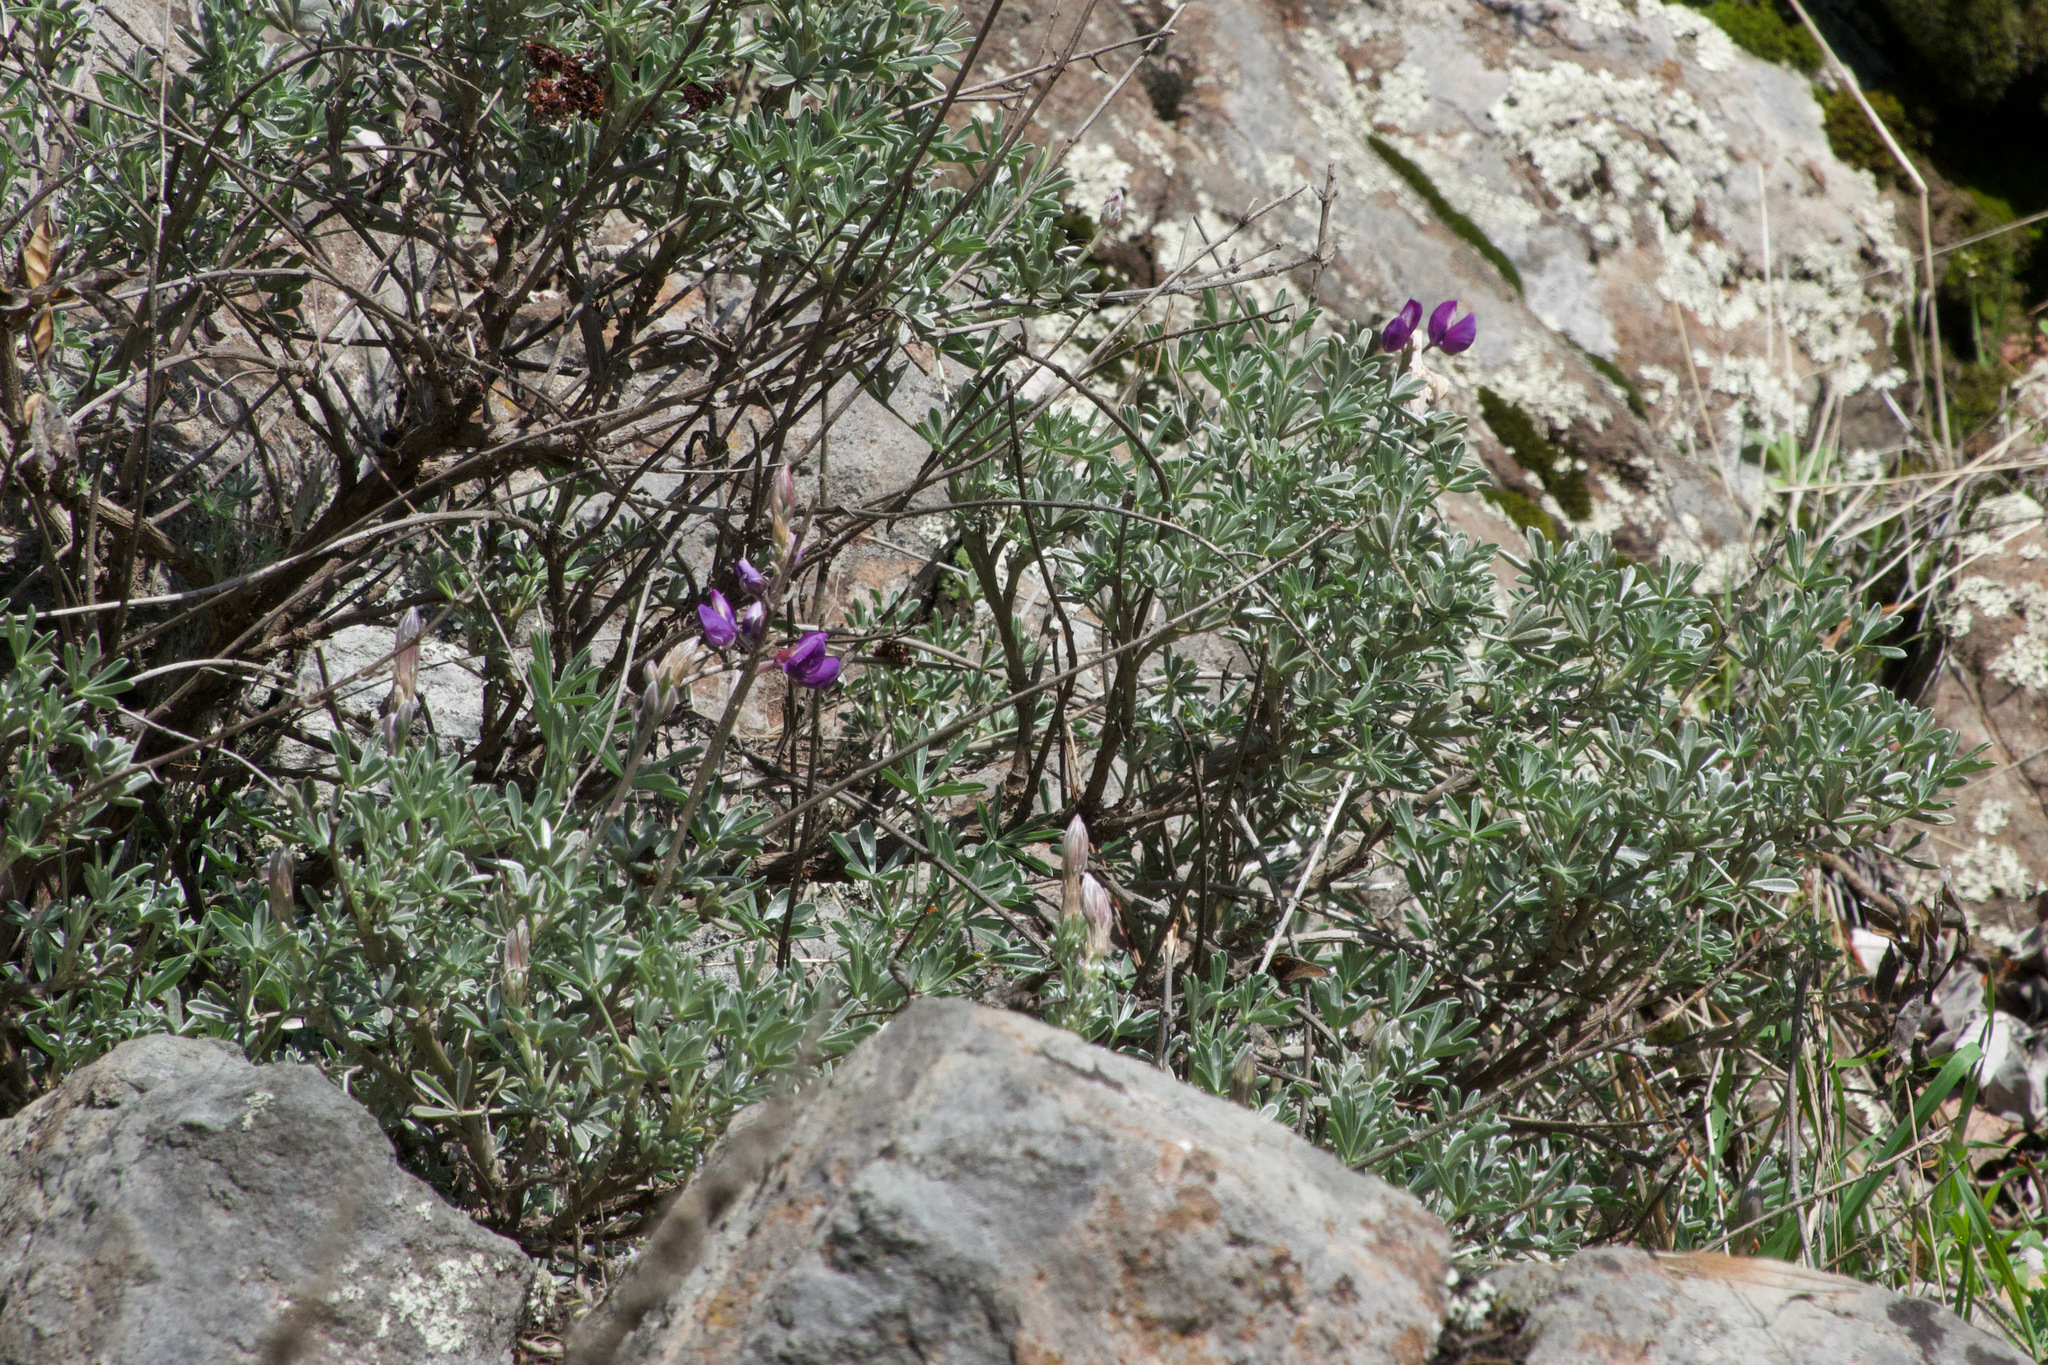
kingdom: Plantae
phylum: Tracheophyta
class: Magnoliopsida
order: Fabales
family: Fabaceae
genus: Lupinus
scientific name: Lupinus albifrons
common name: Foothill lupine
